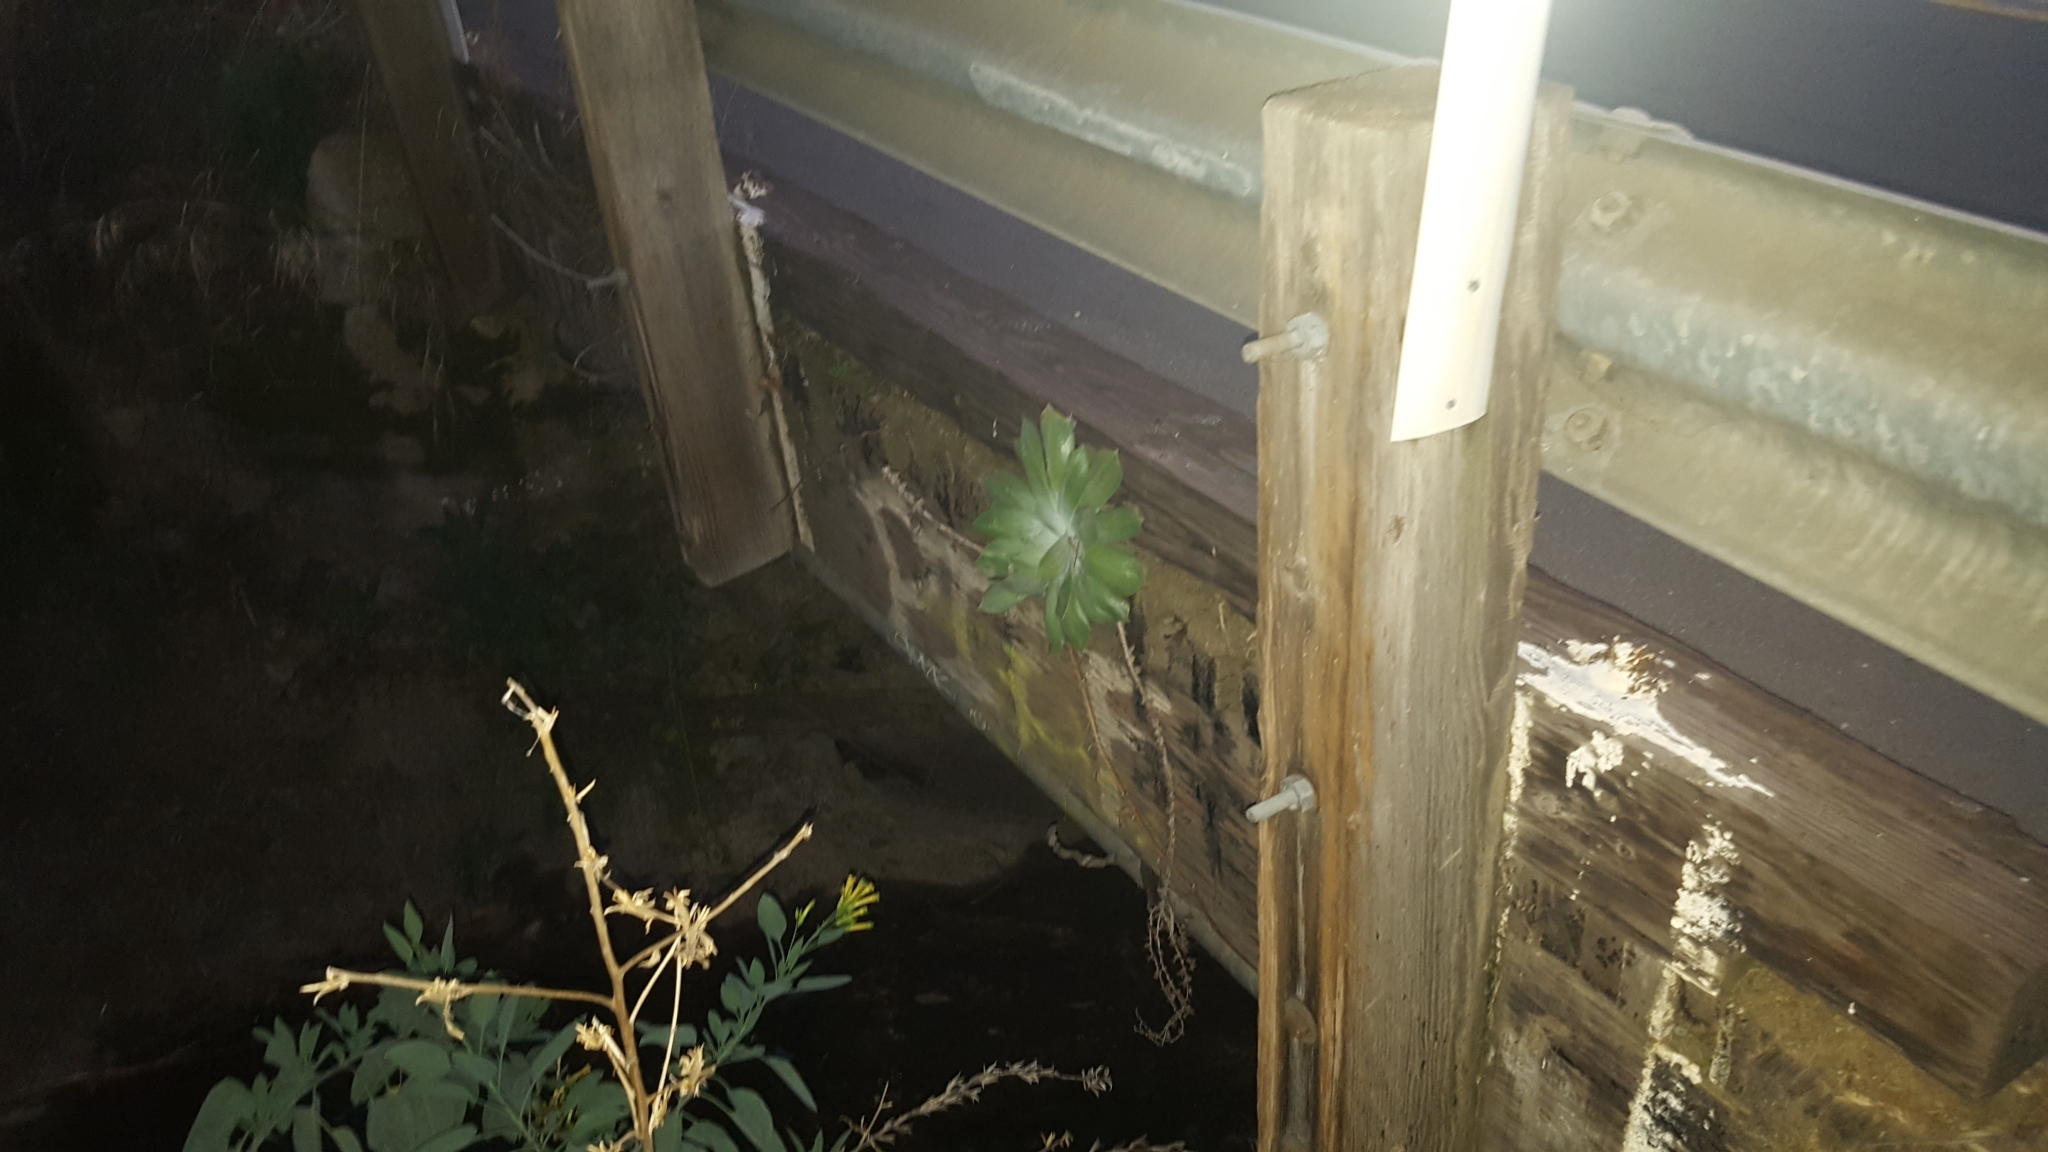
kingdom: Plantae
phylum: Tracheophyta
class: Magnoliopsida
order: Saxifragales
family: Crassulaceae
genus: Dudleya
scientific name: Dudleya pulverulenta
